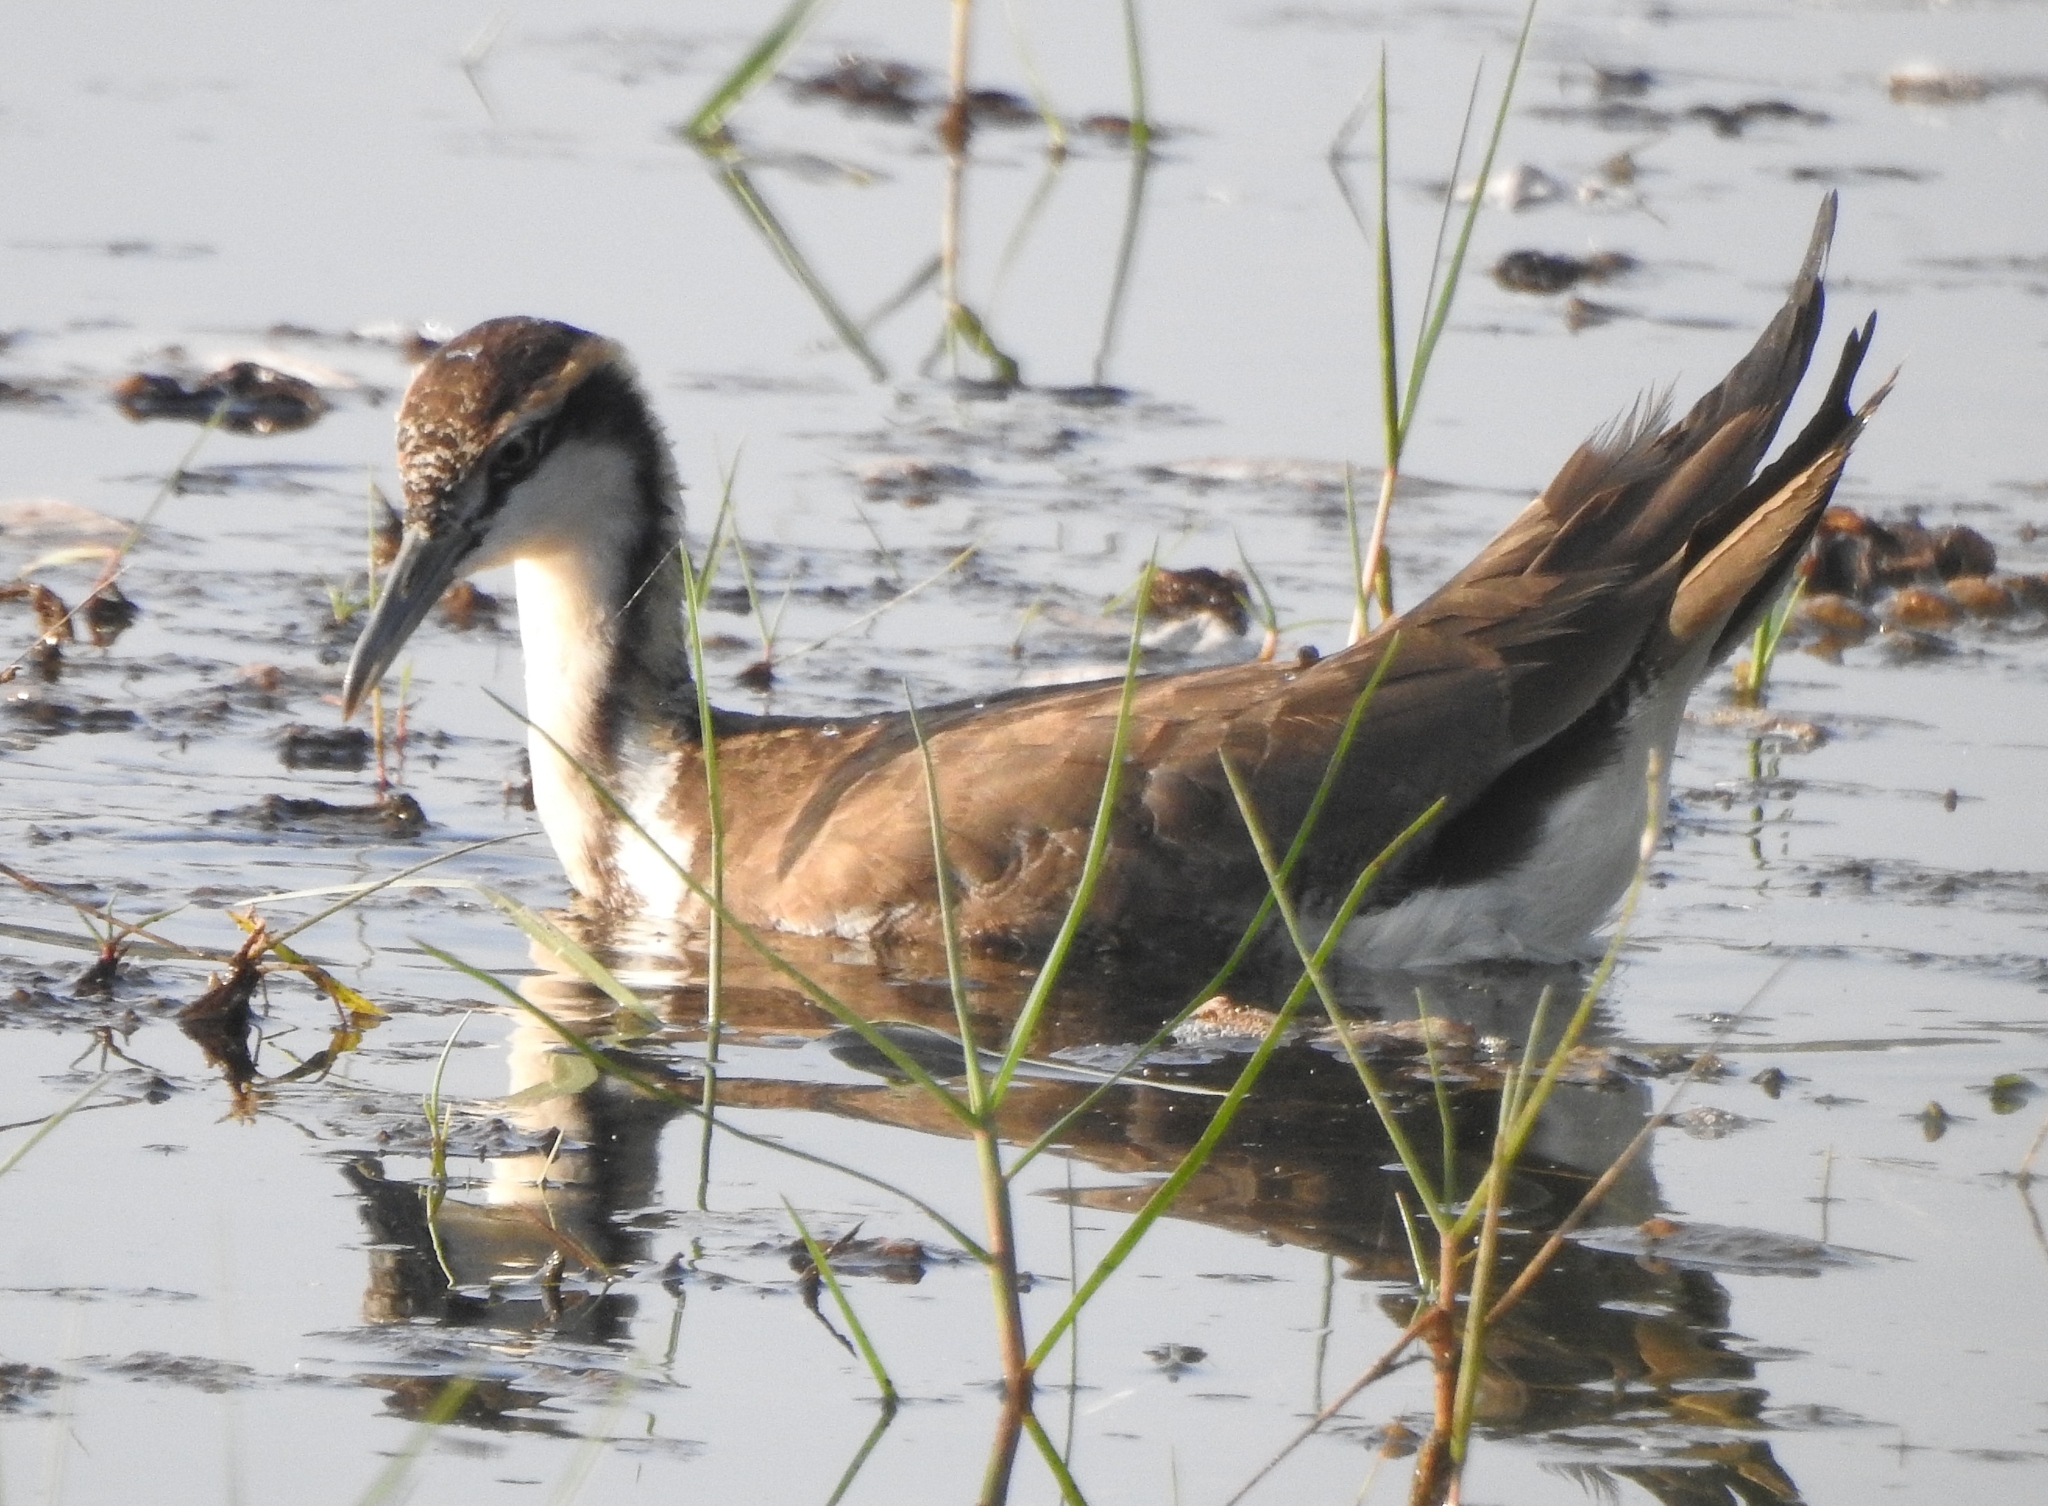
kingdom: Animalia
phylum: Chordata
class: Aves
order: Charadriiformes
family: Jacanidae
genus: Hydrophasianus
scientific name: Hydrophasianus chirurgus
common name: Pheasant-tailed jacana
